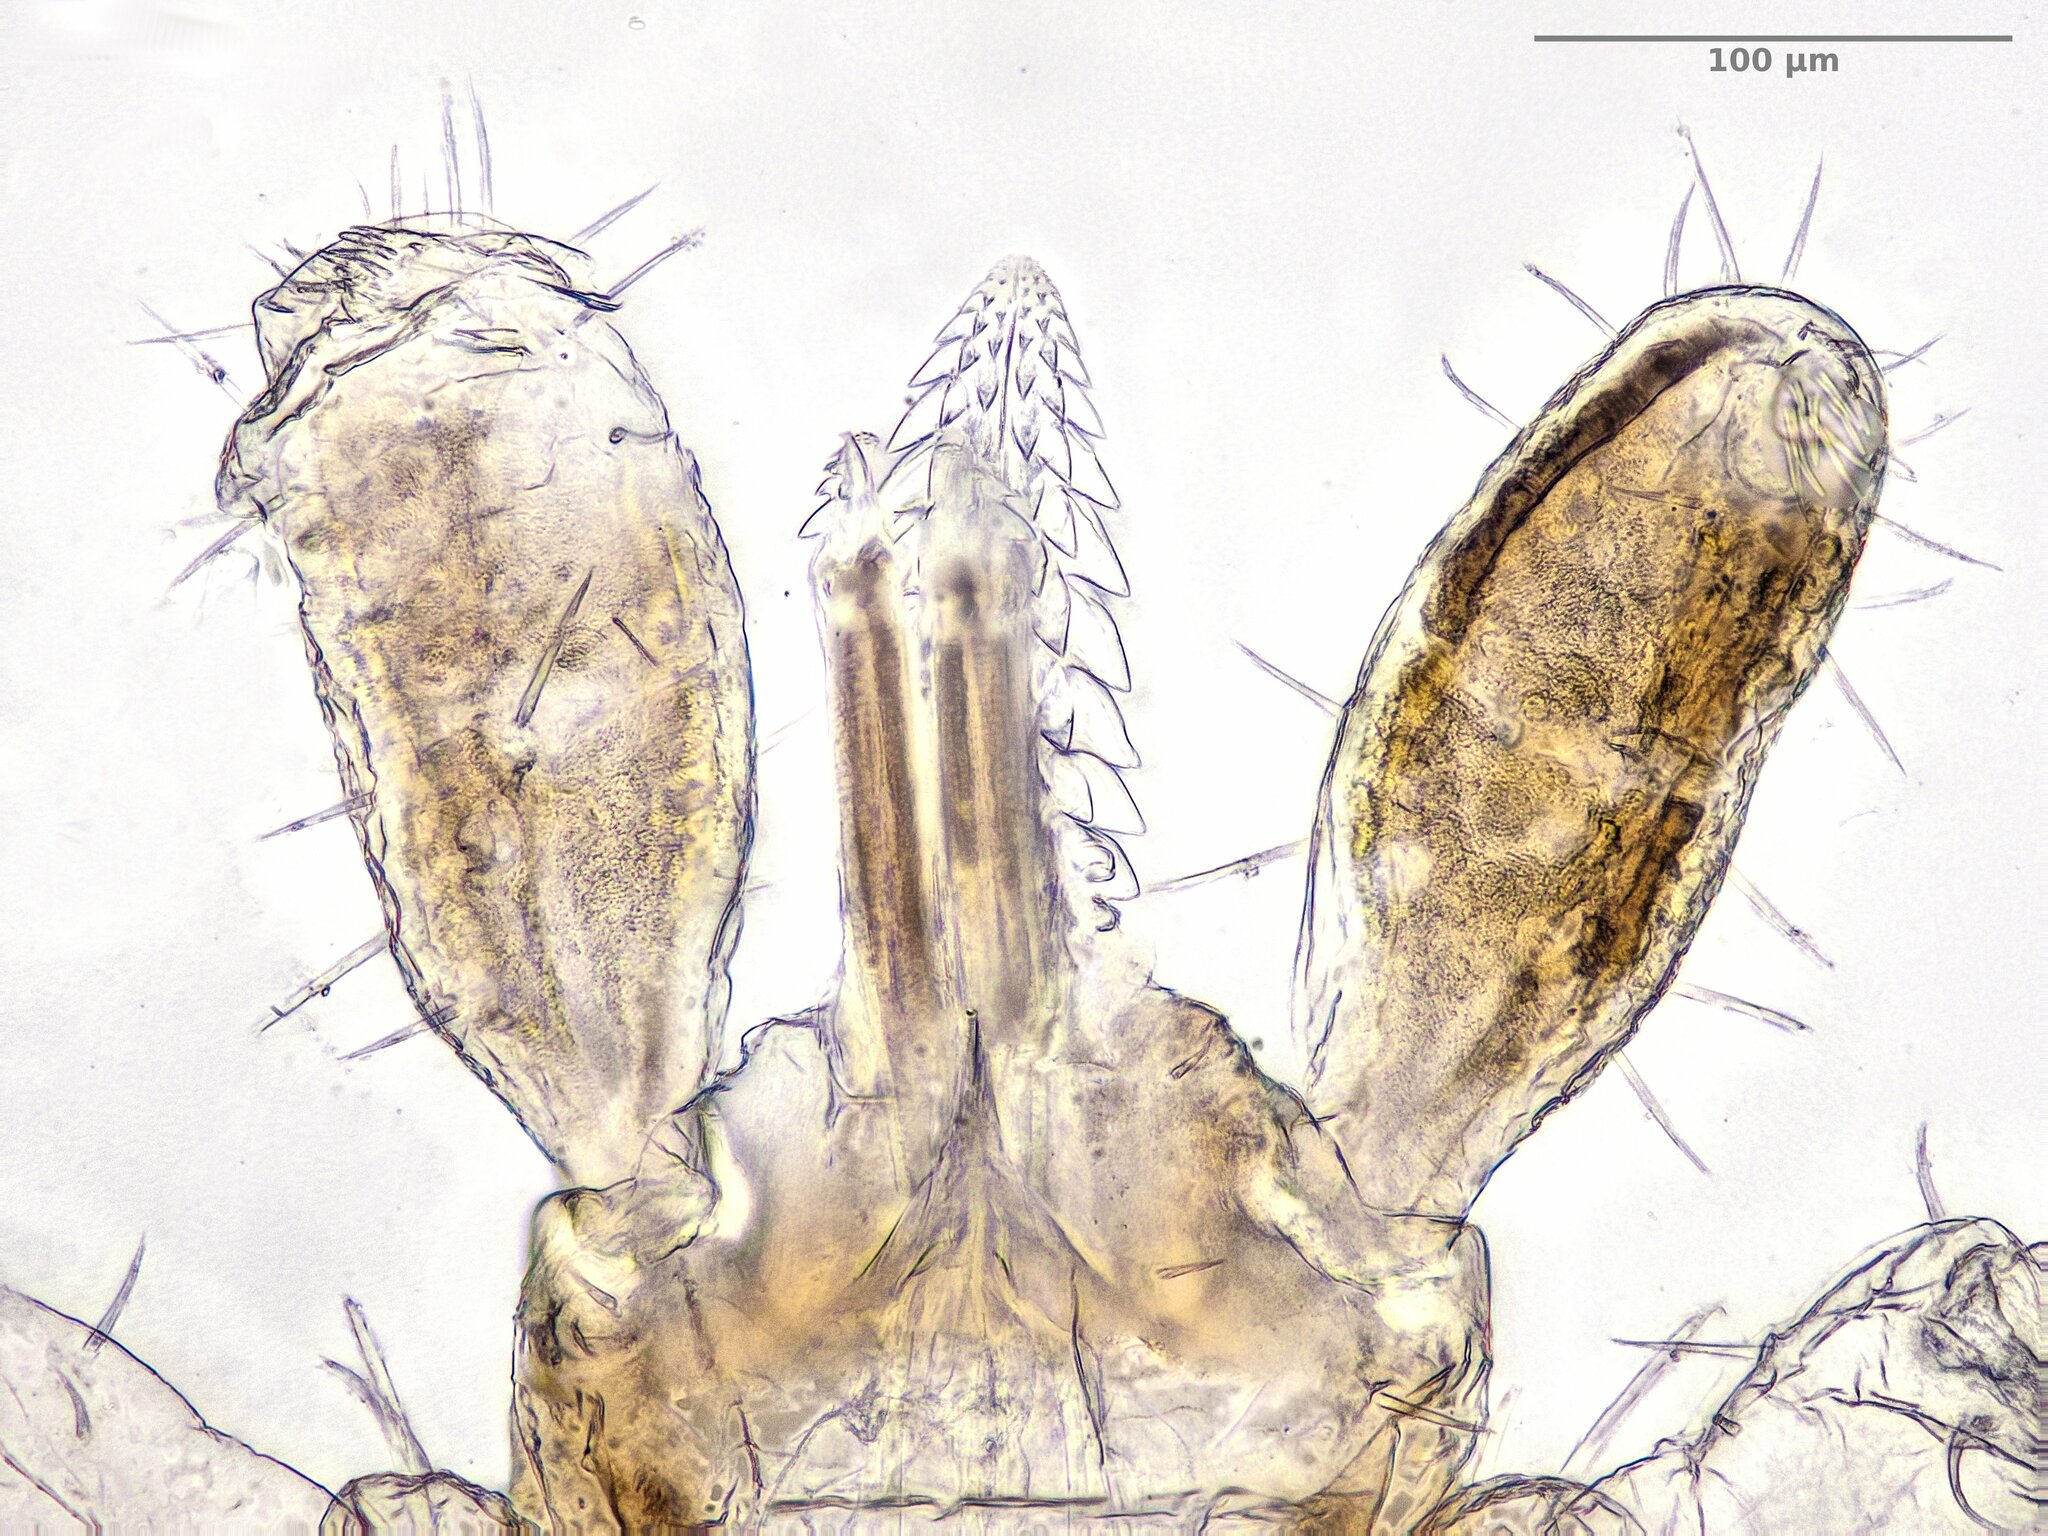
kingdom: Animalia
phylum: Arthropoda
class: Arachnida
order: Ixodida
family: Ixodidae
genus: Ixodes
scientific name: Ixodes frontalis
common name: Passerine tick
